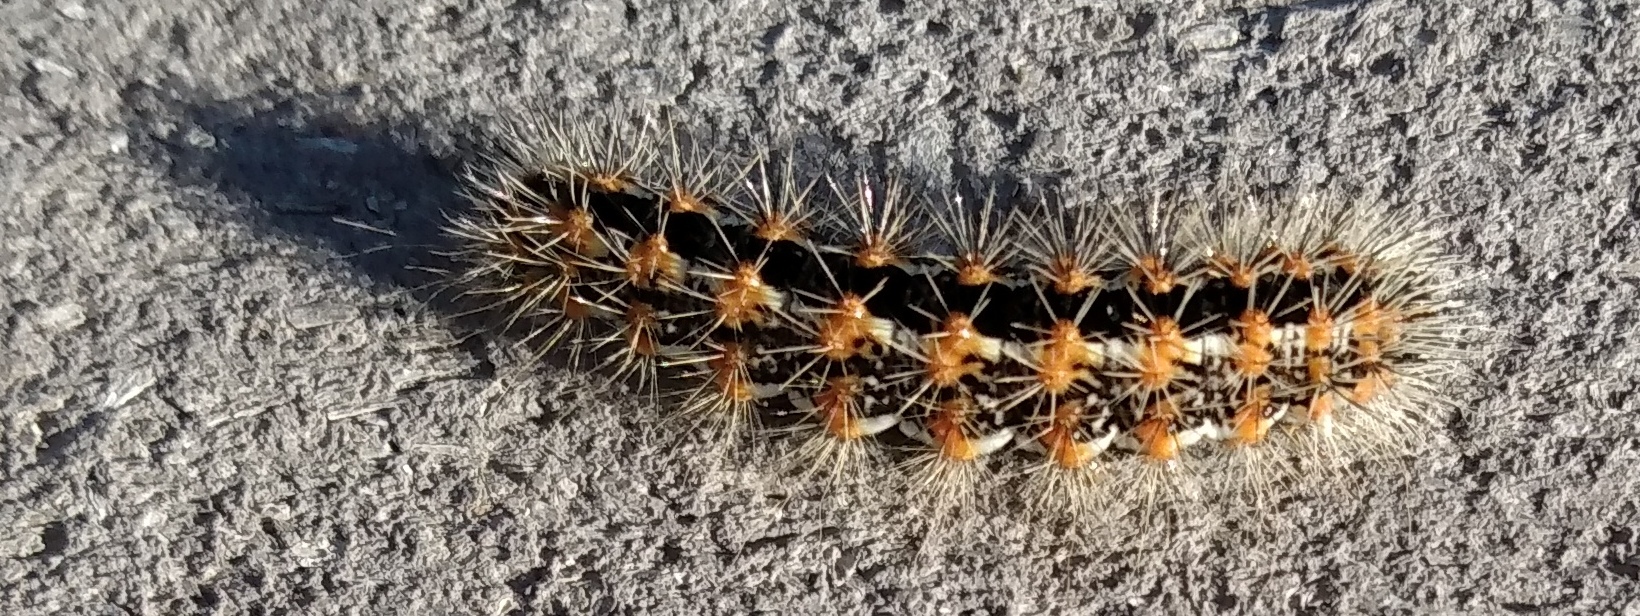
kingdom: Animalia
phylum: Arthropoda
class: Insecta
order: Lepidoptera
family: Noctuidae
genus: Acronicta
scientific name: Acronicta insularis
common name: Henry's marsh moth
